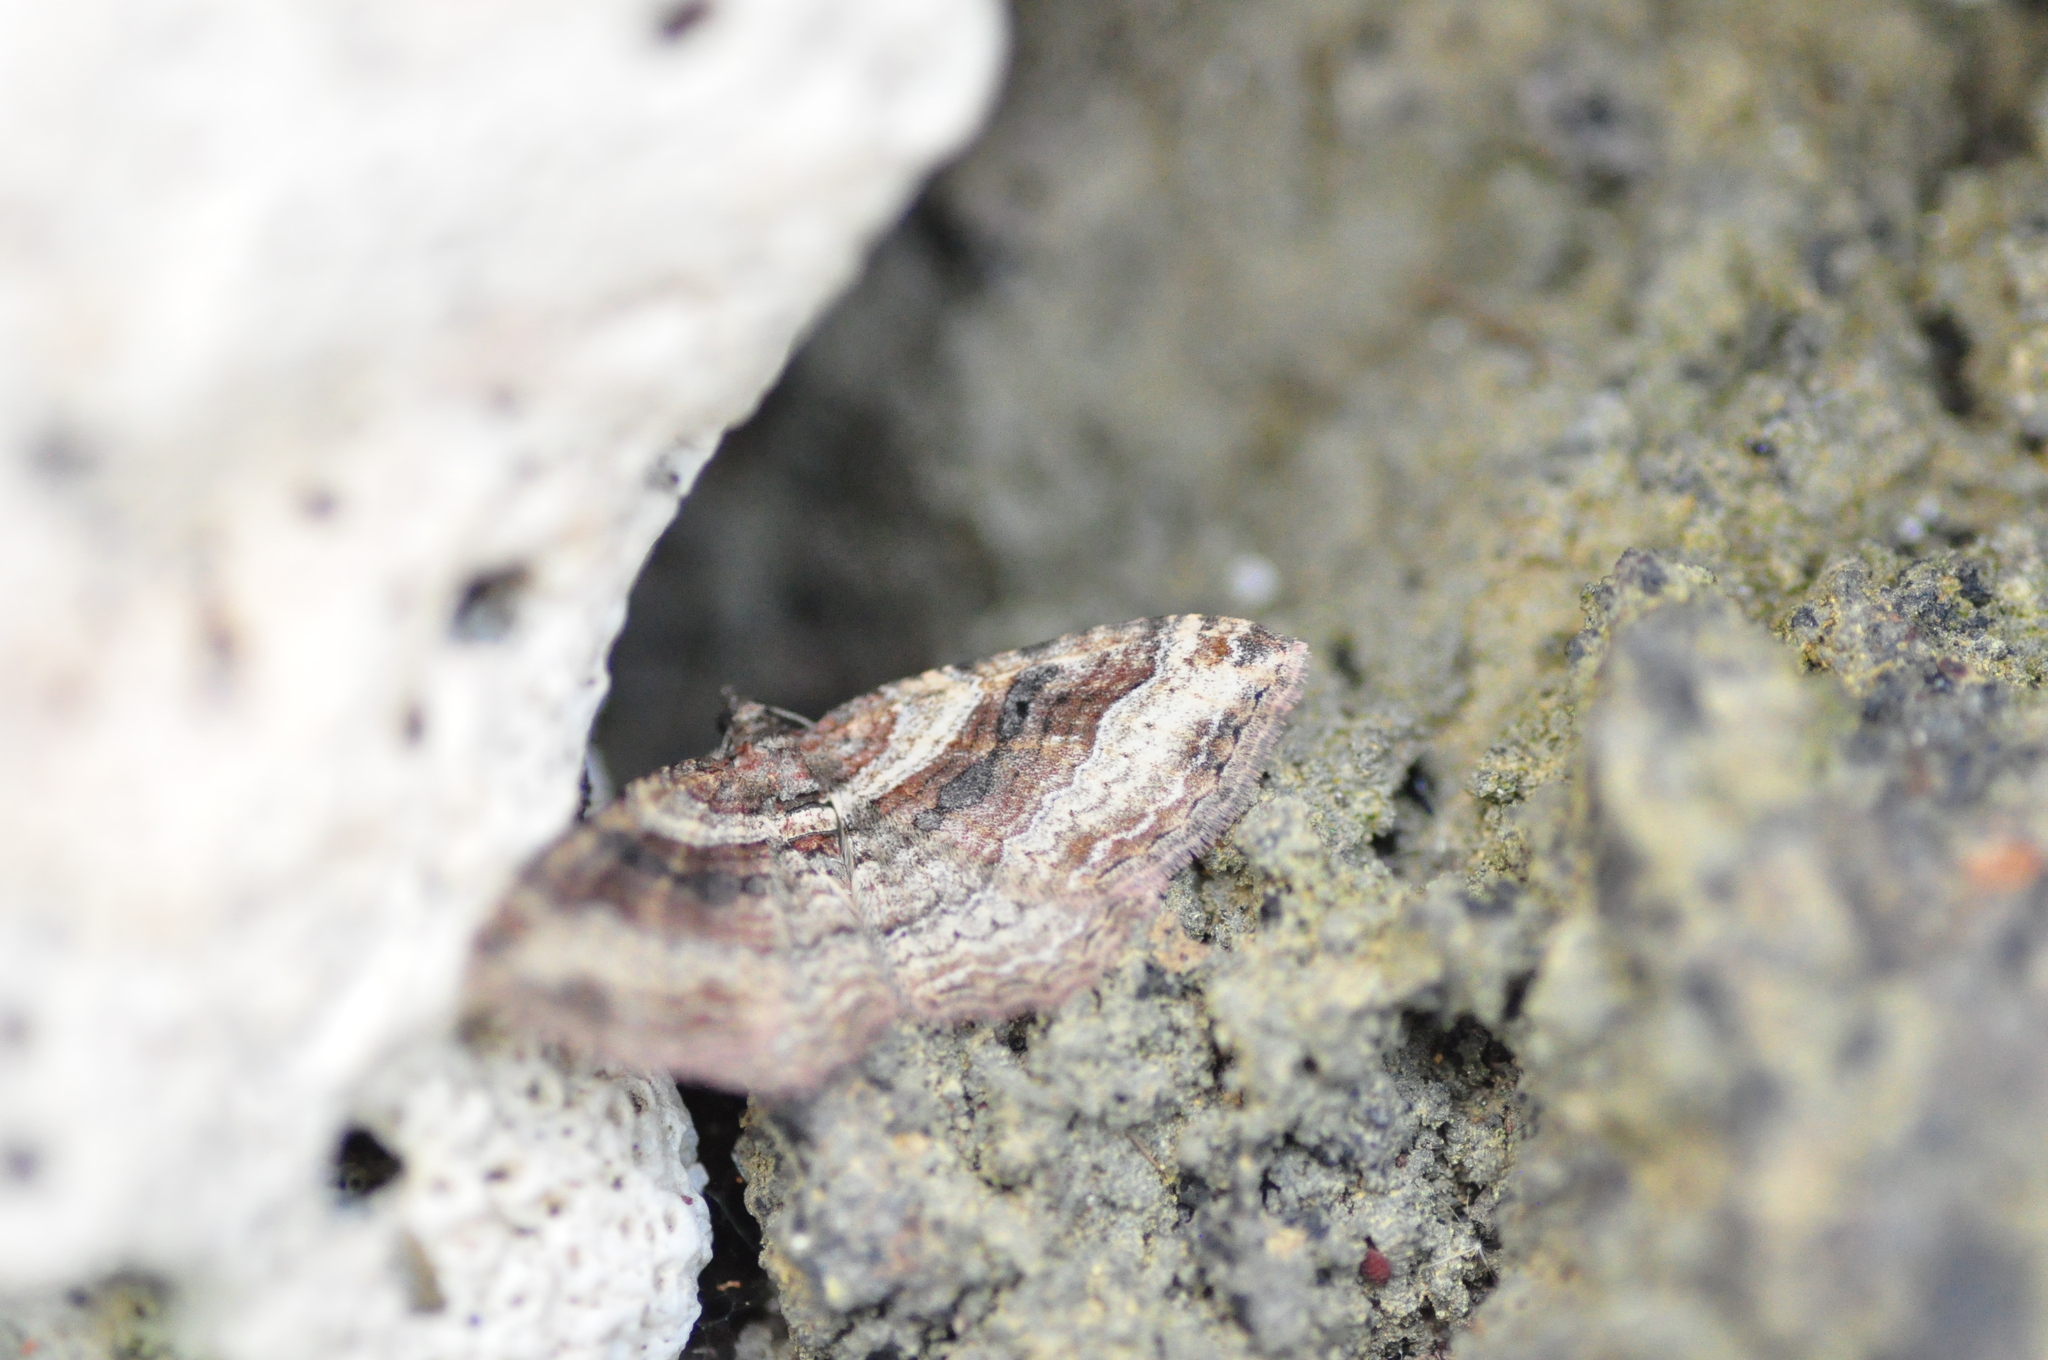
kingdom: Animalia
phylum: Arthropoda
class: Insecta
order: Lepidoptera
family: Geometridae
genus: Costaconvexa
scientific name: Costaconvexa centrostrigaria
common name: Bent-line carpet
